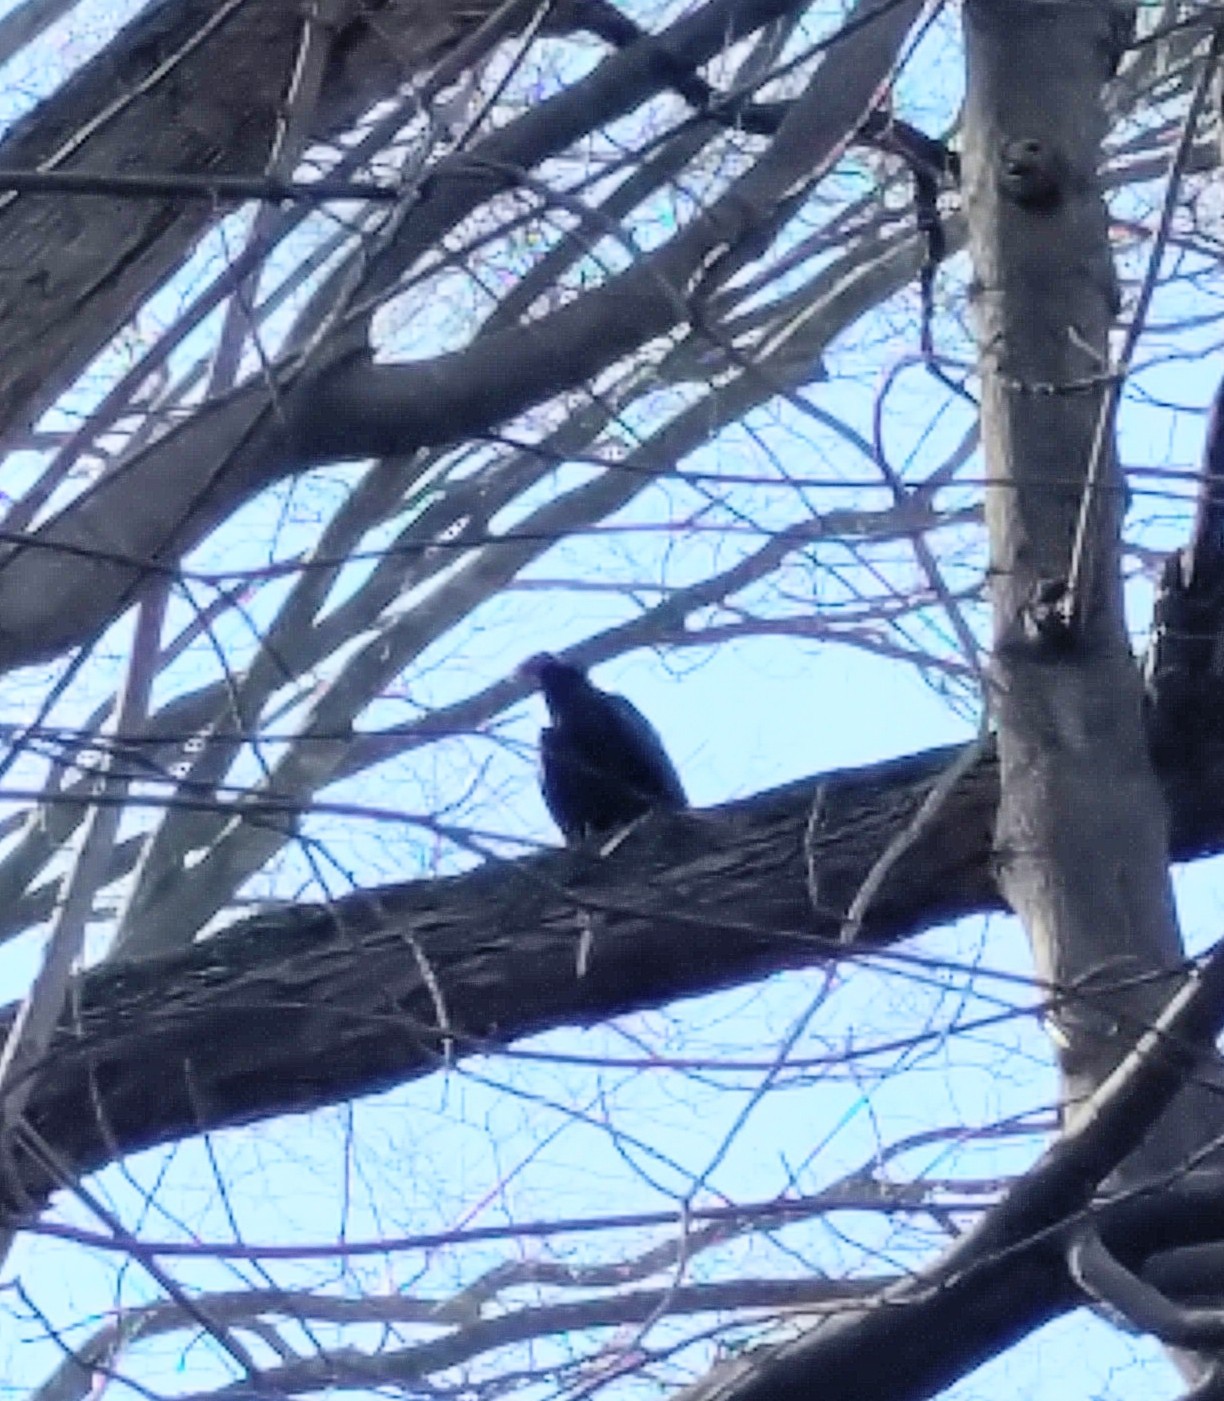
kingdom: Animalia
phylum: Chordata
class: Aves
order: Accipitriformes
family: Cathartidae
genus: Cathartes
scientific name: Cathartes aura
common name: Turkey vulture
